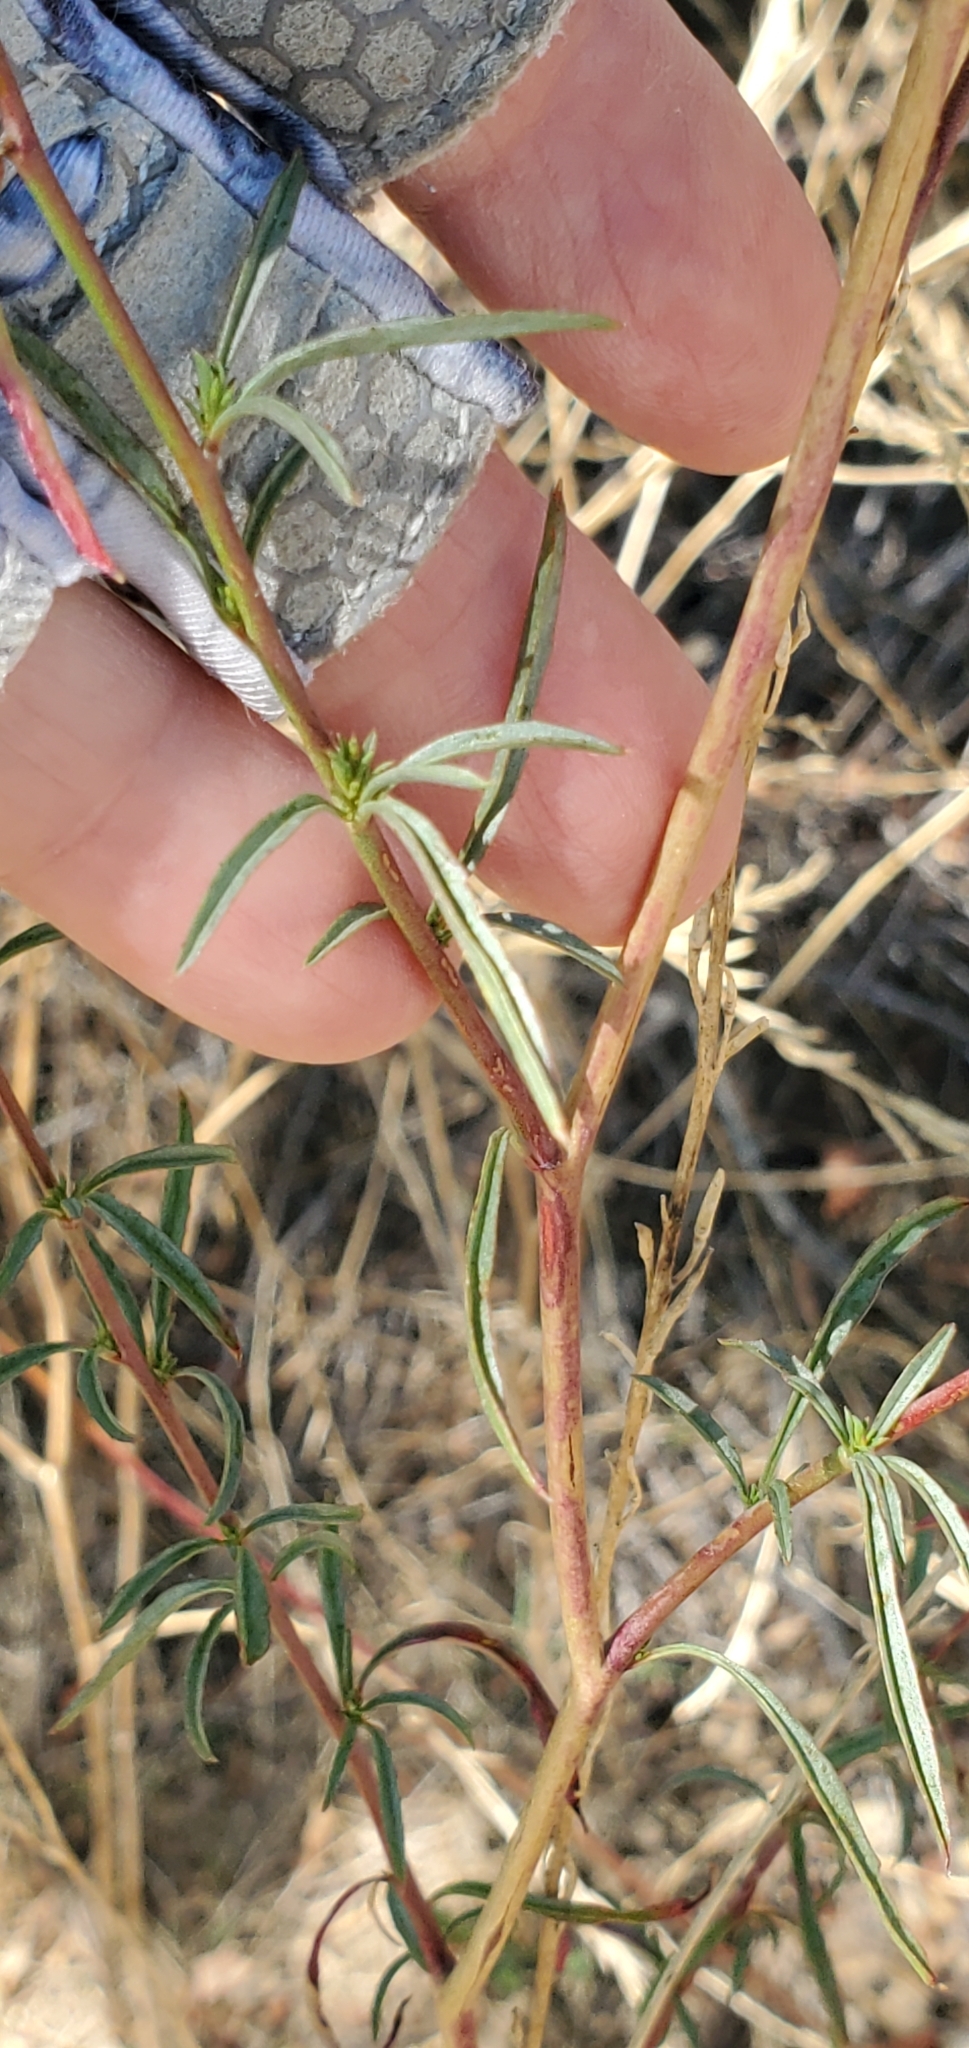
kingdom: Plantae
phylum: Tracheophyta
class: Magnoliopsida
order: Myrtales
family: Onagraceae
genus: Epilobium
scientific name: Epilobium brachycarpum
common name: Annual willowherb
